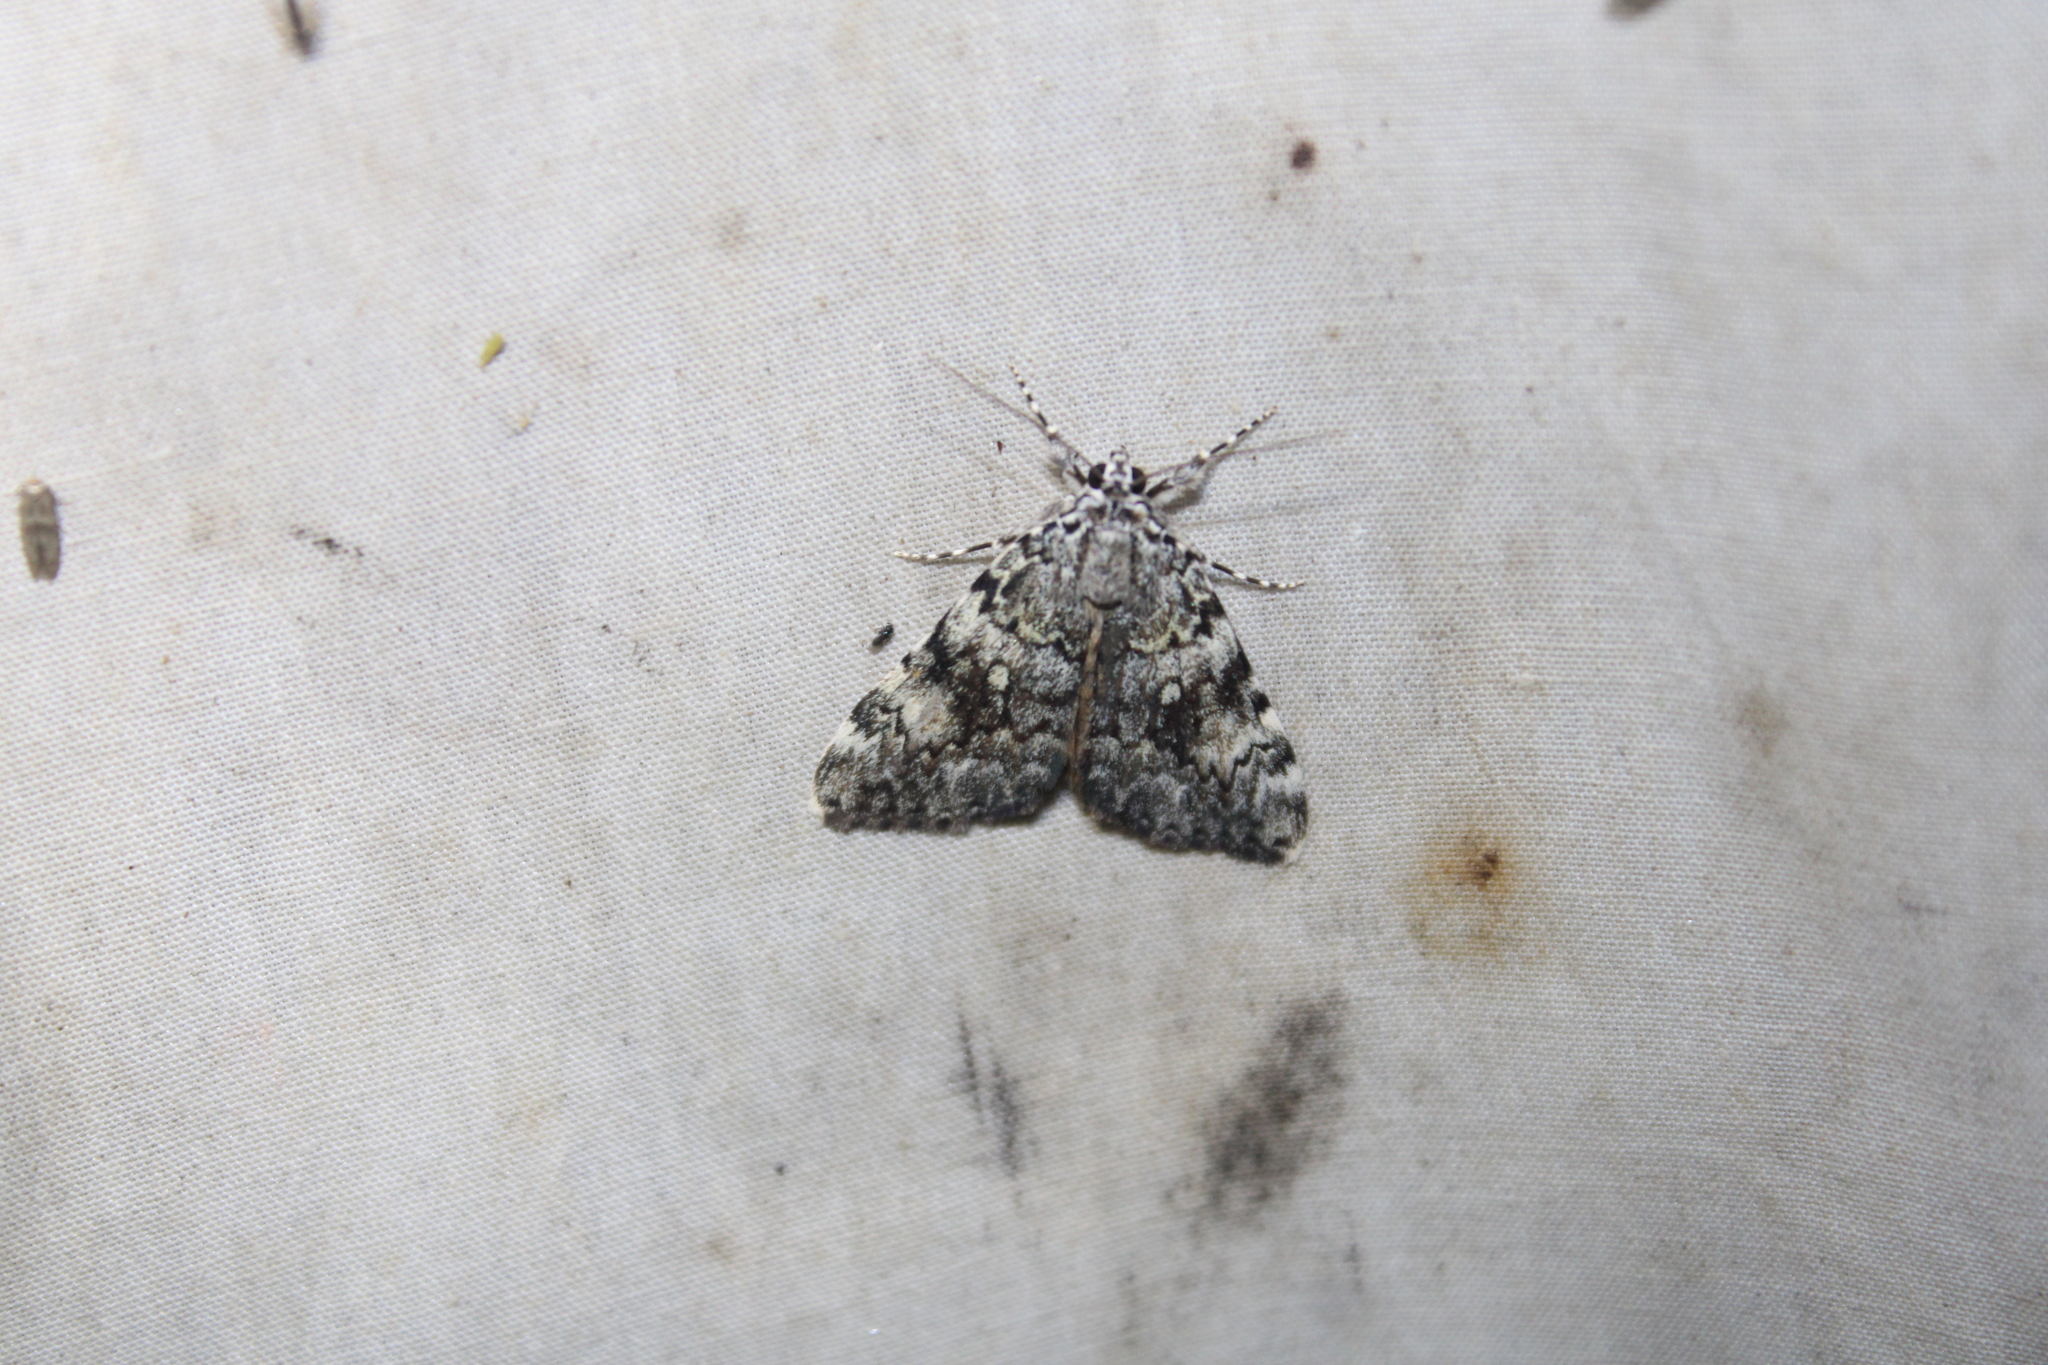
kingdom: Animalia
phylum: Arthropoda
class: Insecta
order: Lepidoptera
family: Erebidae
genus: Catocala
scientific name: Catocala lineella
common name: Little lined underwing
